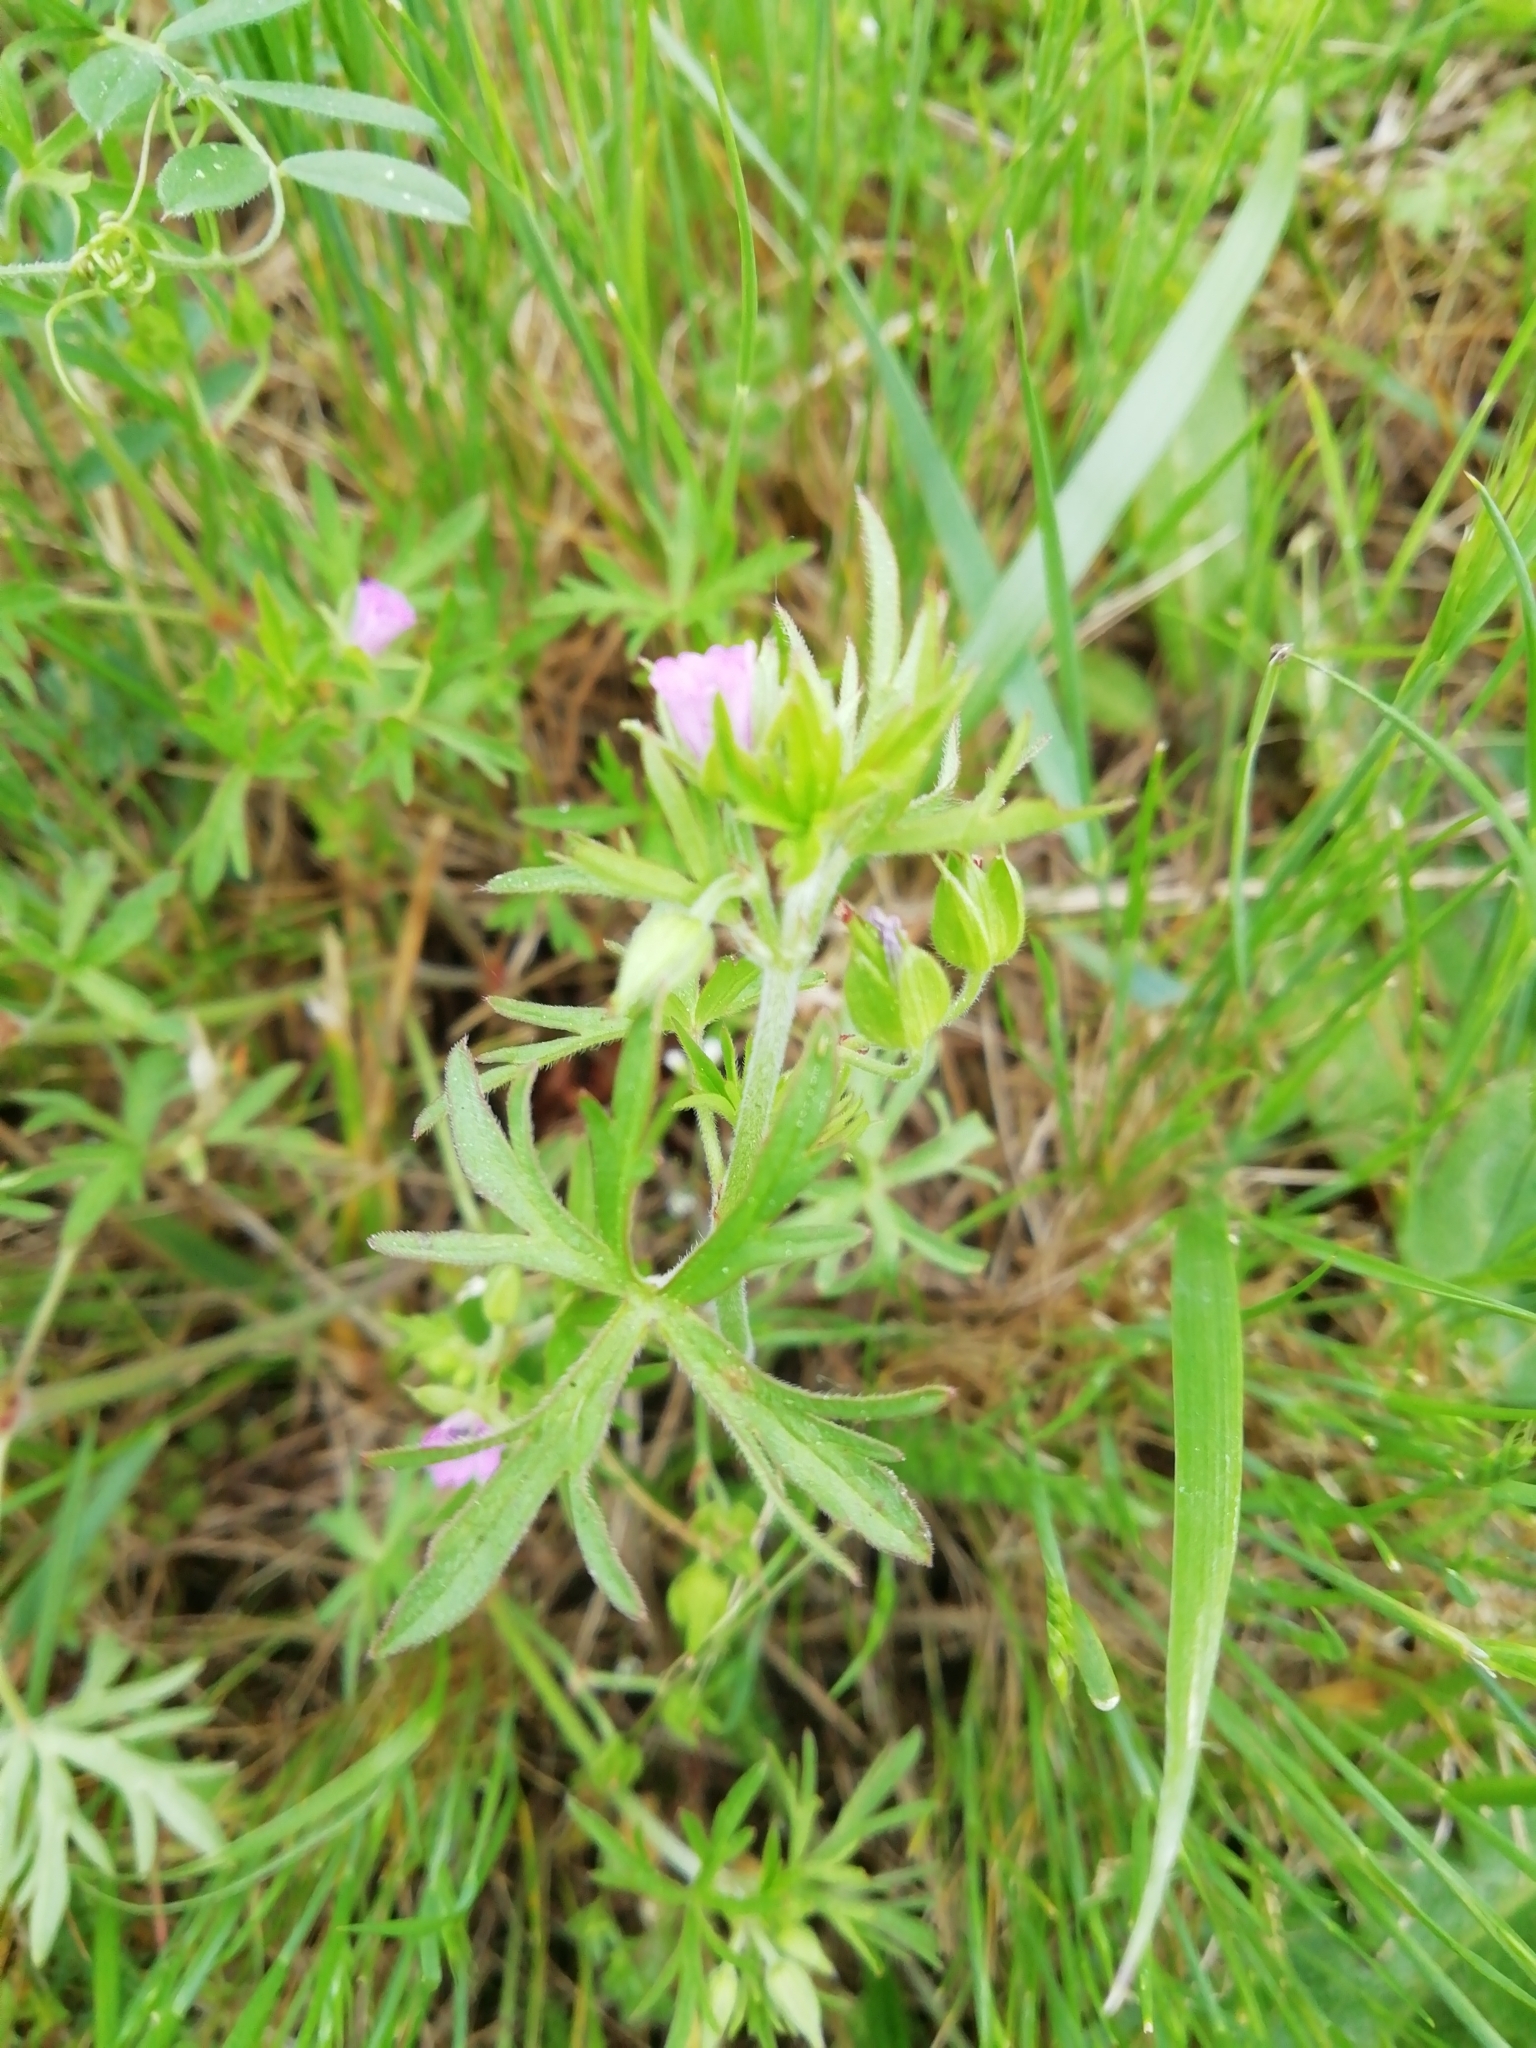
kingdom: Plantae
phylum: Tracheophyta
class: Magnoliopsida
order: Geraniales
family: Geraniaceae
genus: Geranium
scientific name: Geranium dissectum
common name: Cut-leaved crane's-bill
